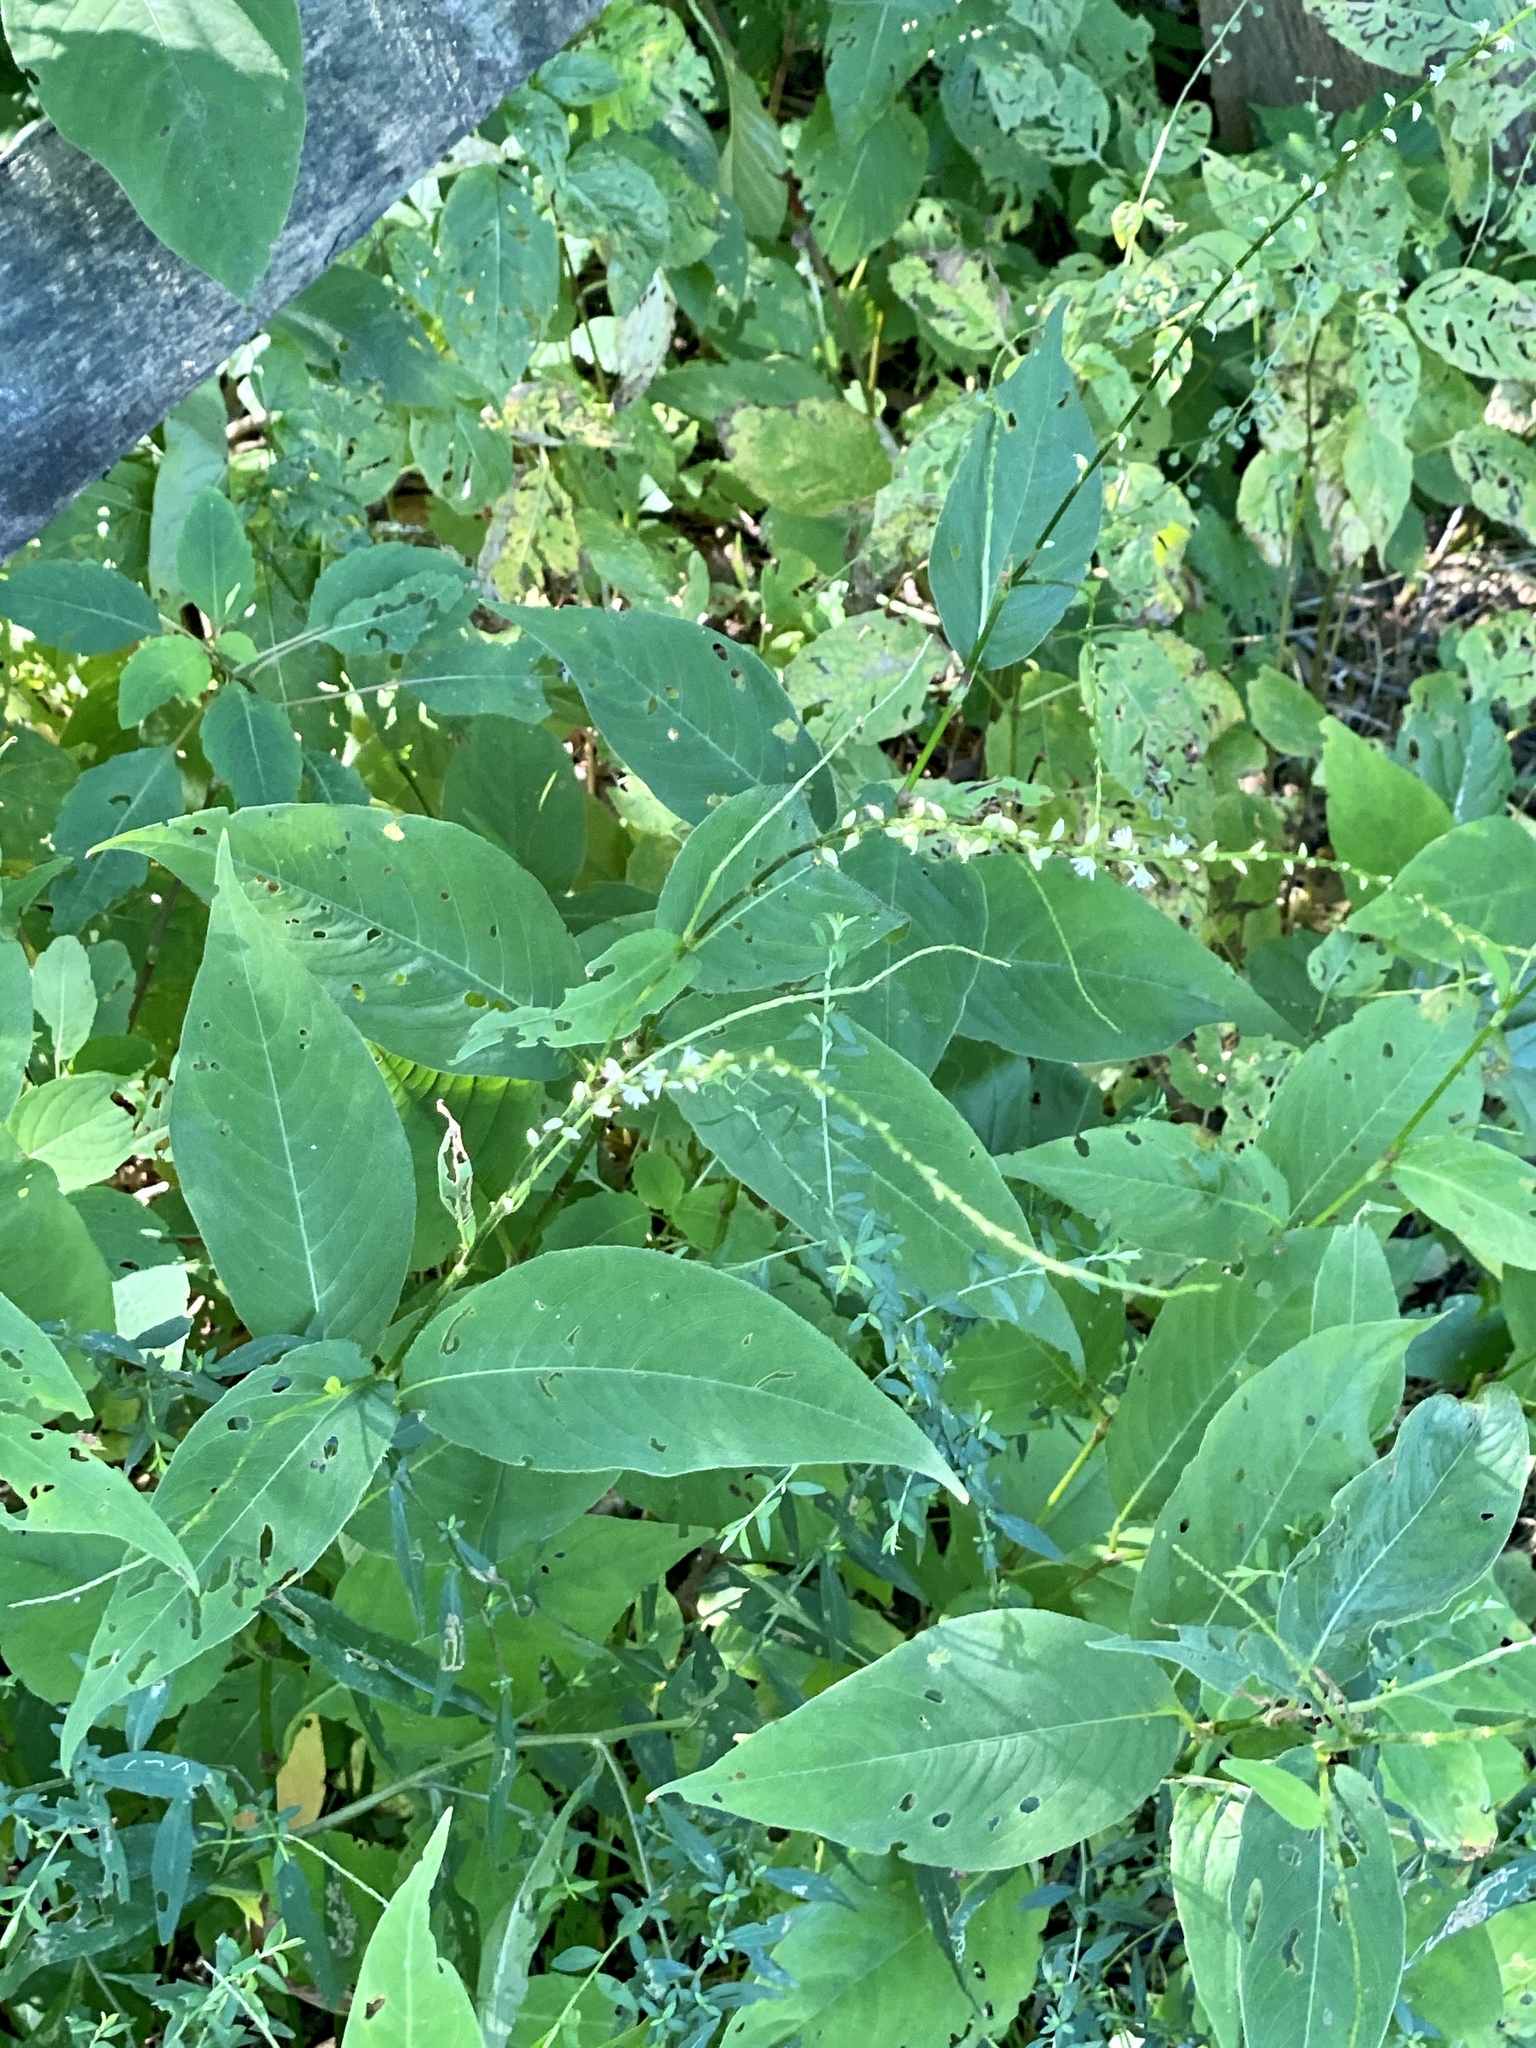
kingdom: Plantae
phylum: Tracheophyta
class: Magnoliopsida
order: Caryophyllales
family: Polygonaceae
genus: Persicaria
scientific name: Persicaria virginiana
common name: Jumpseed
